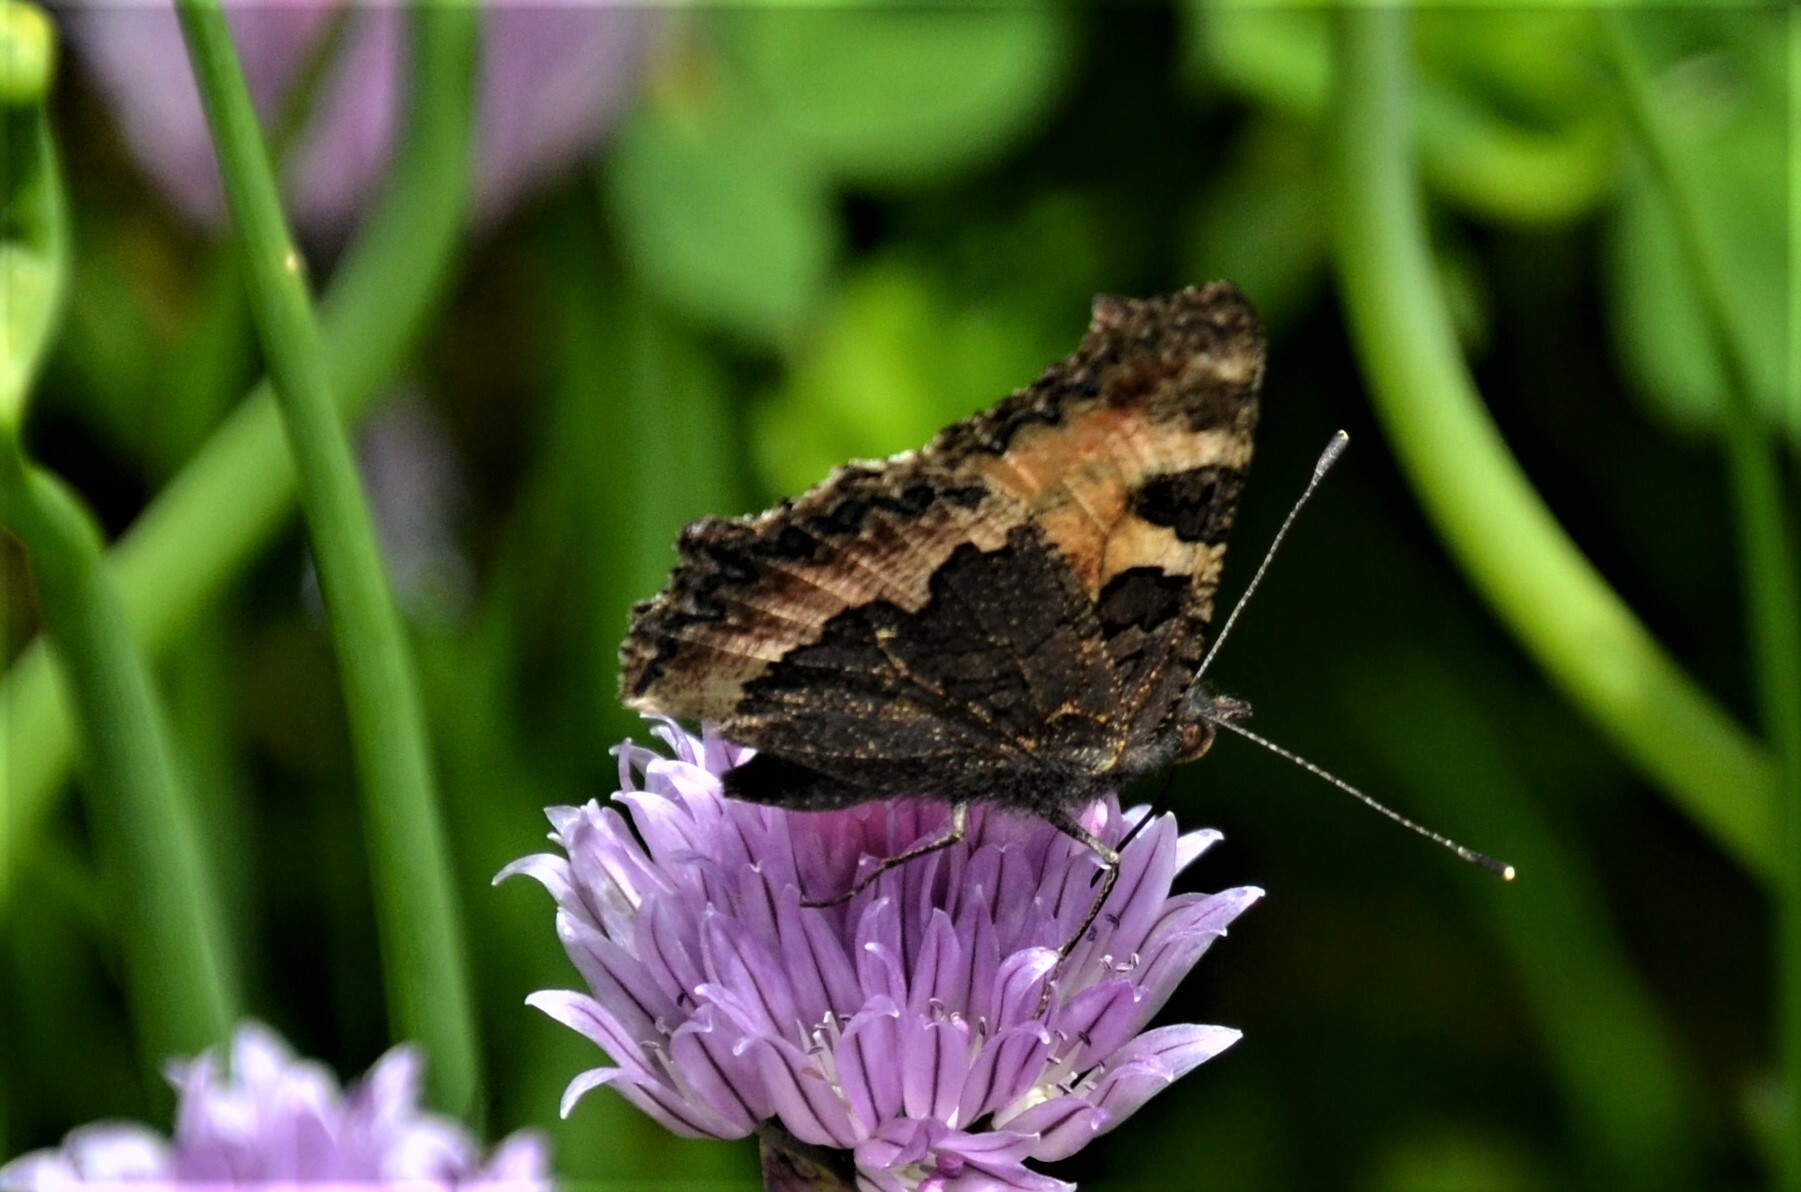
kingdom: Animalia
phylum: Arthropoda
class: Insecta
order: Lepidoptera
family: Nymphalidae
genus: Aglais
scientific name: Aglais urticae
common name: Small tortoiseshell
